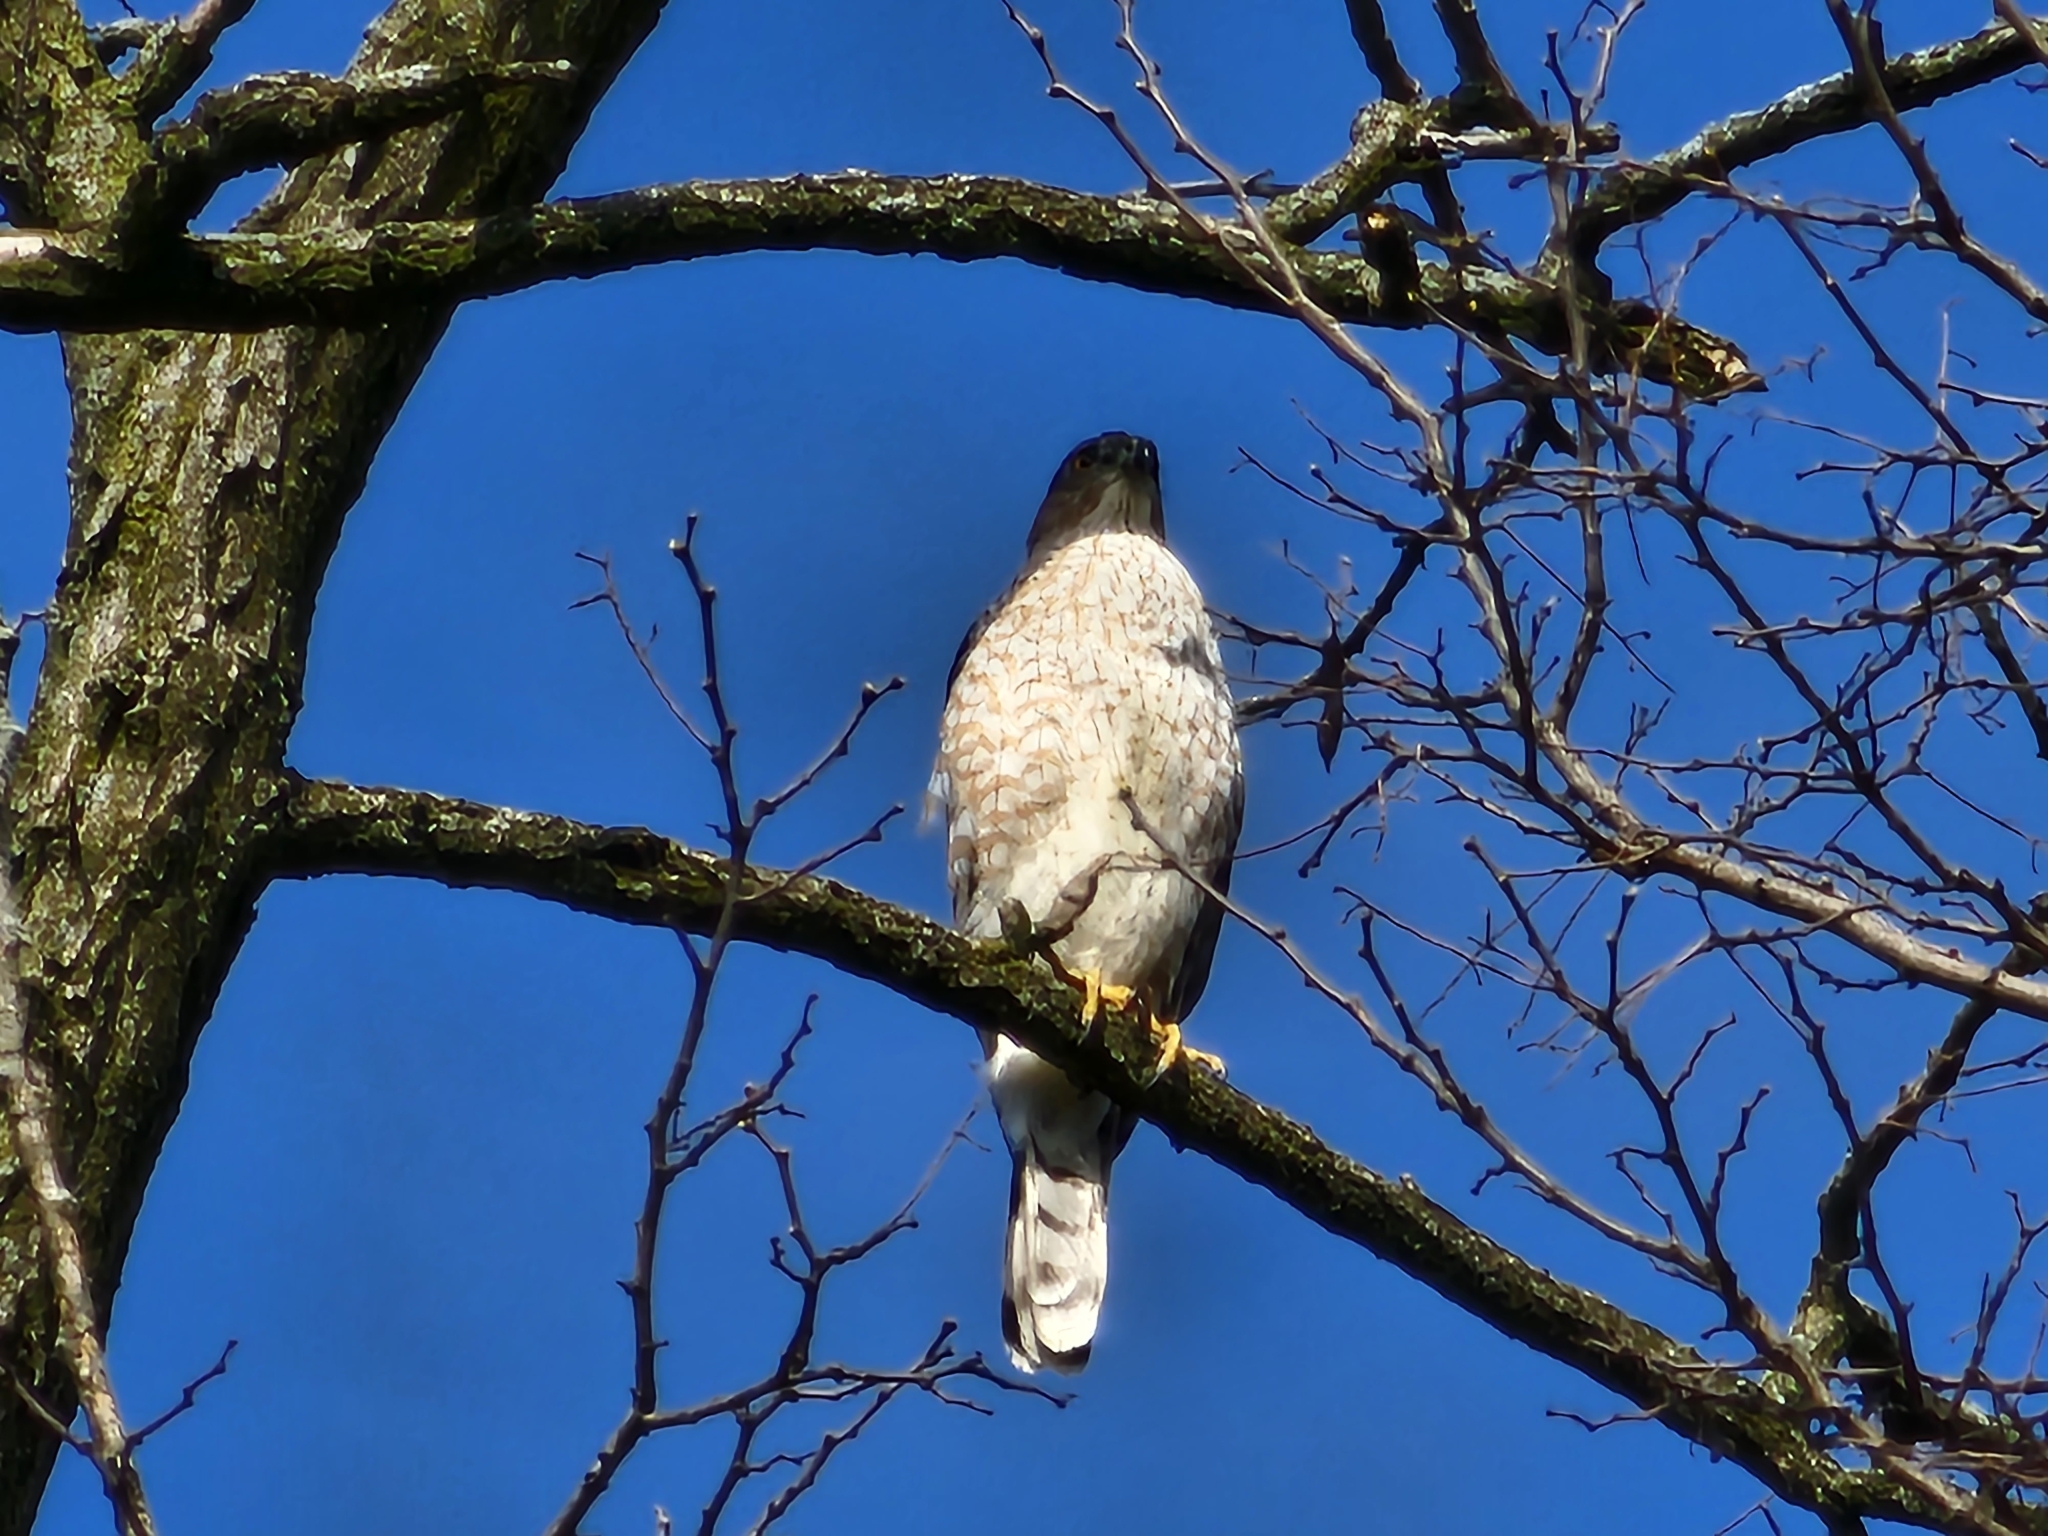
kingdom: Animalia
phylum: Chordata
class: Aves
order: Accipitriformes
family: Accipitridae
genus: Accipiter
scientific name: Accipiter cooperii
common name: Cooper's hawk
